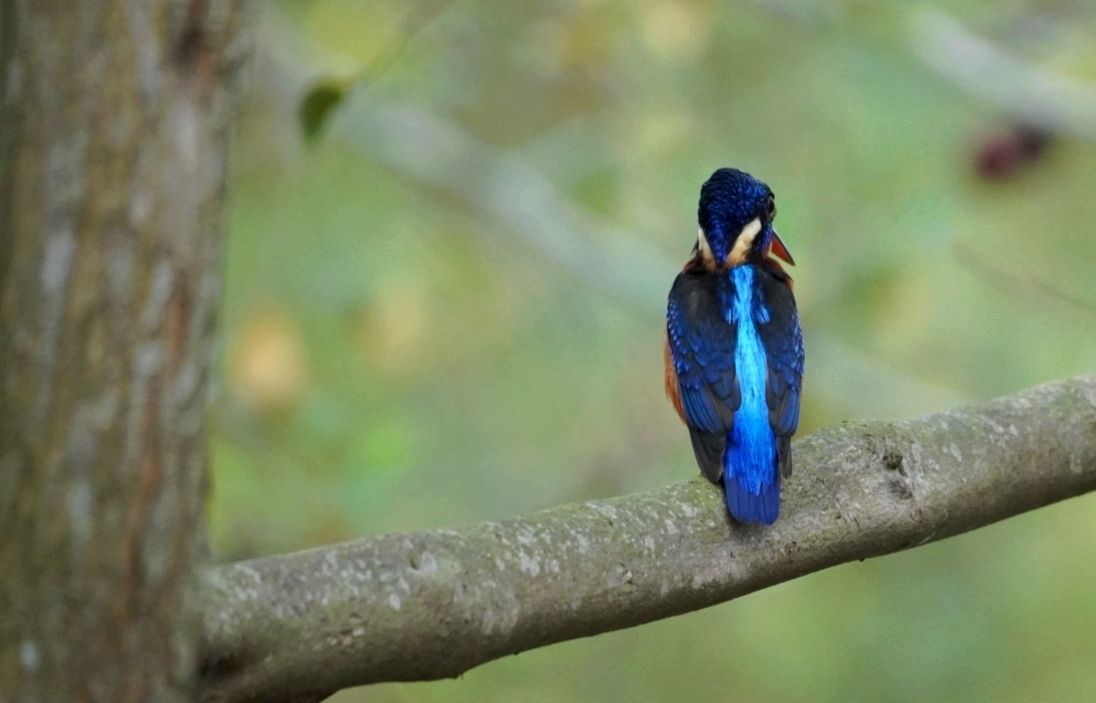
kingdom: Animalia
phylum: Chordata
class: Aves
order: Coraciiformes
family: Alcedinidae
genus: Alcedo
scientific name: Alcedo meninting
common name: Blue-eared kingfisher
